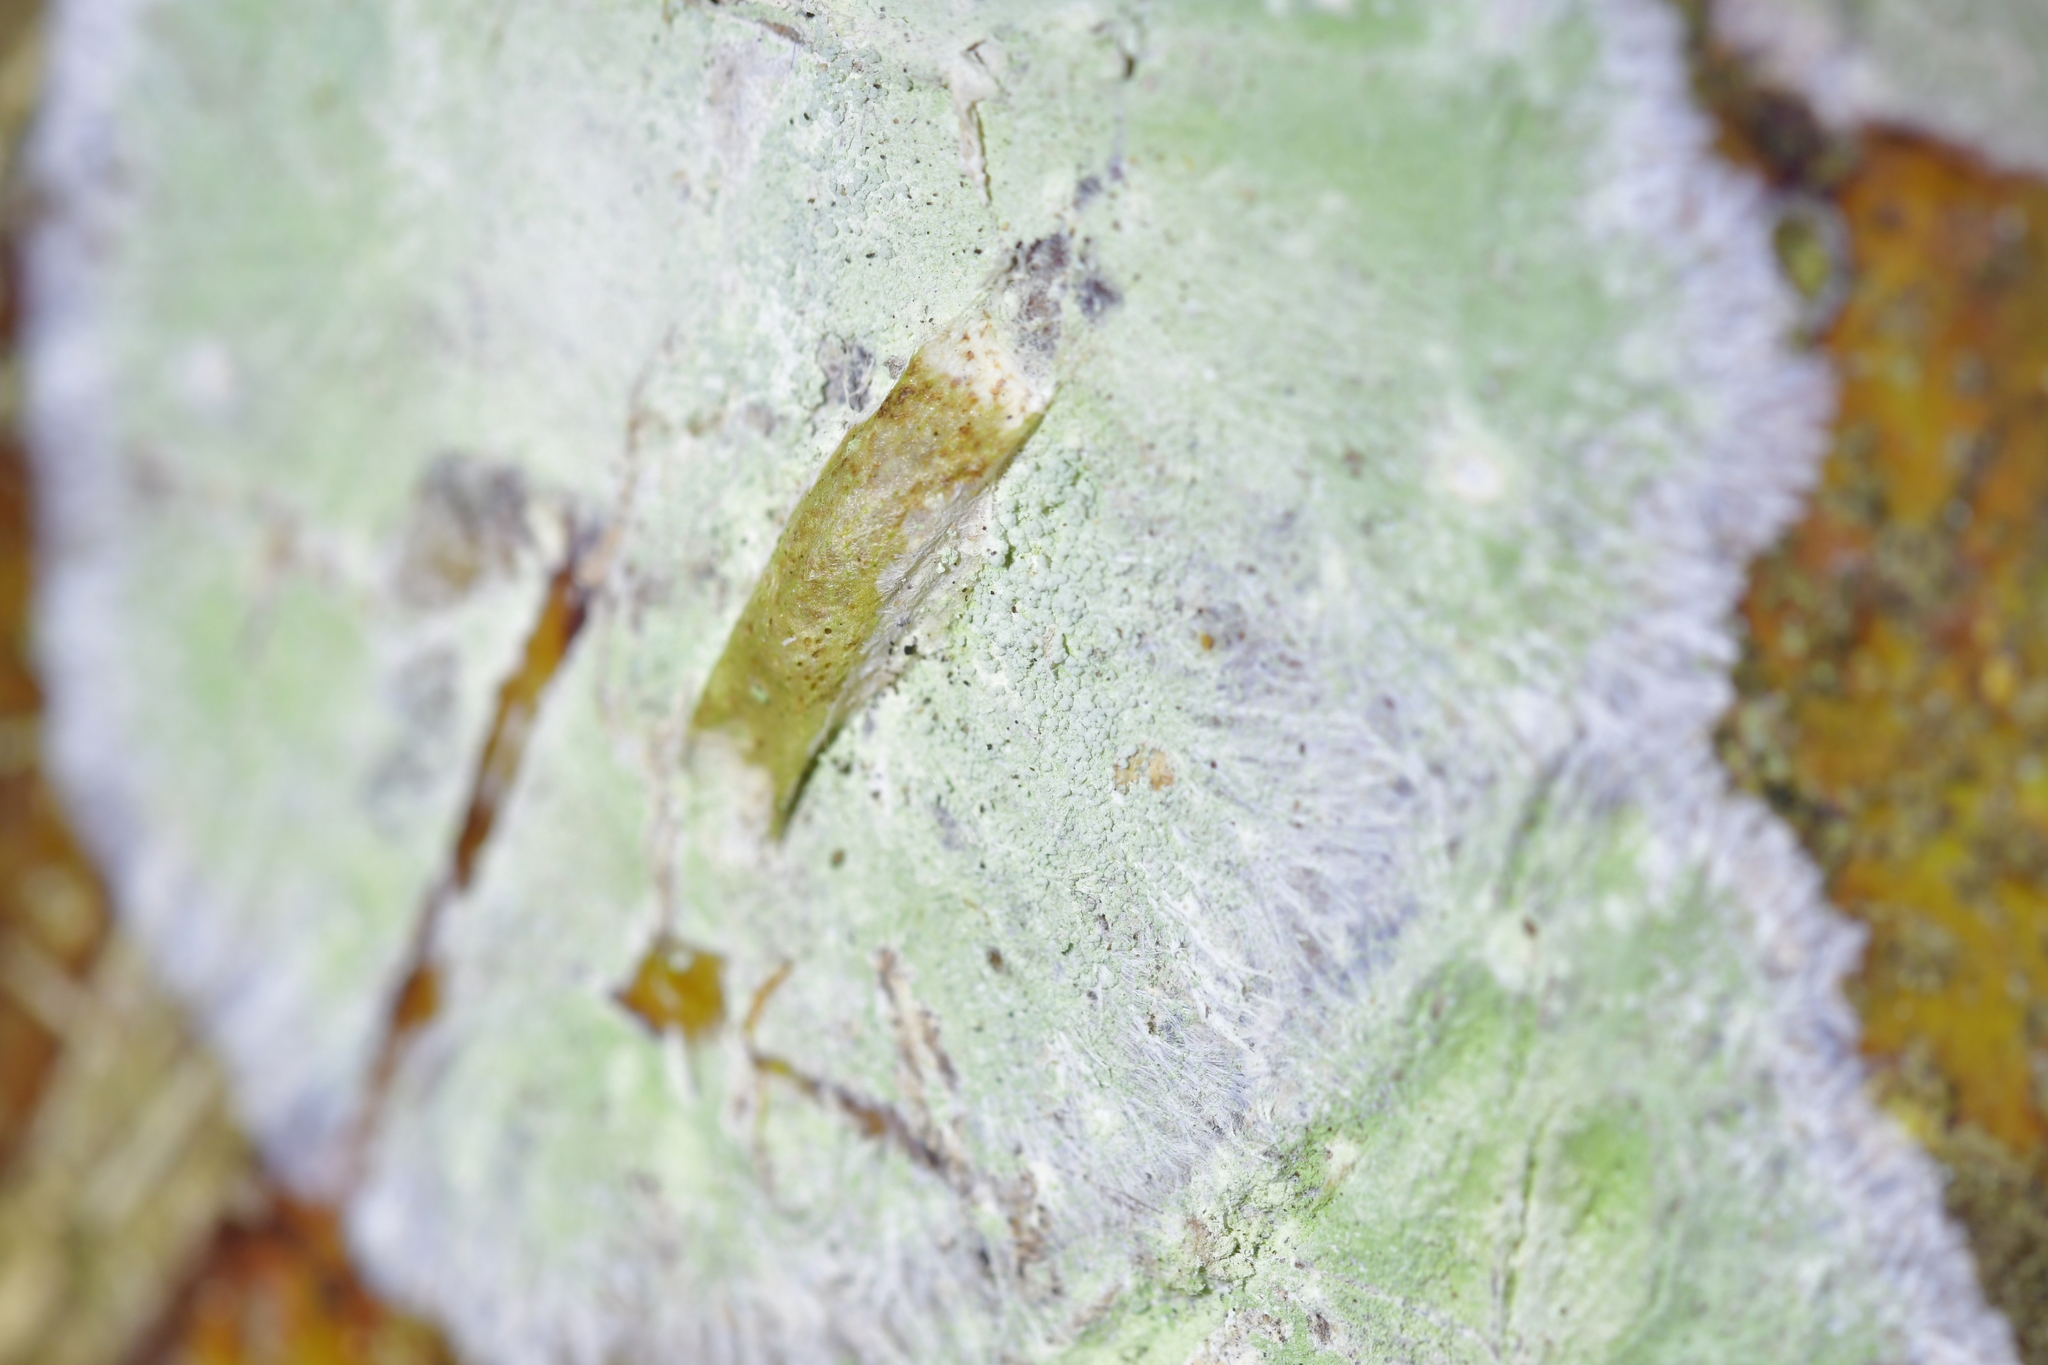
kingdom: Animalia
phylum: Arthropoda
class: Insecta
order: Lepidoptera
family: Plutellidae
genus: Doxophyrtis
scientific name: Doxophyrtis hydrocosma
